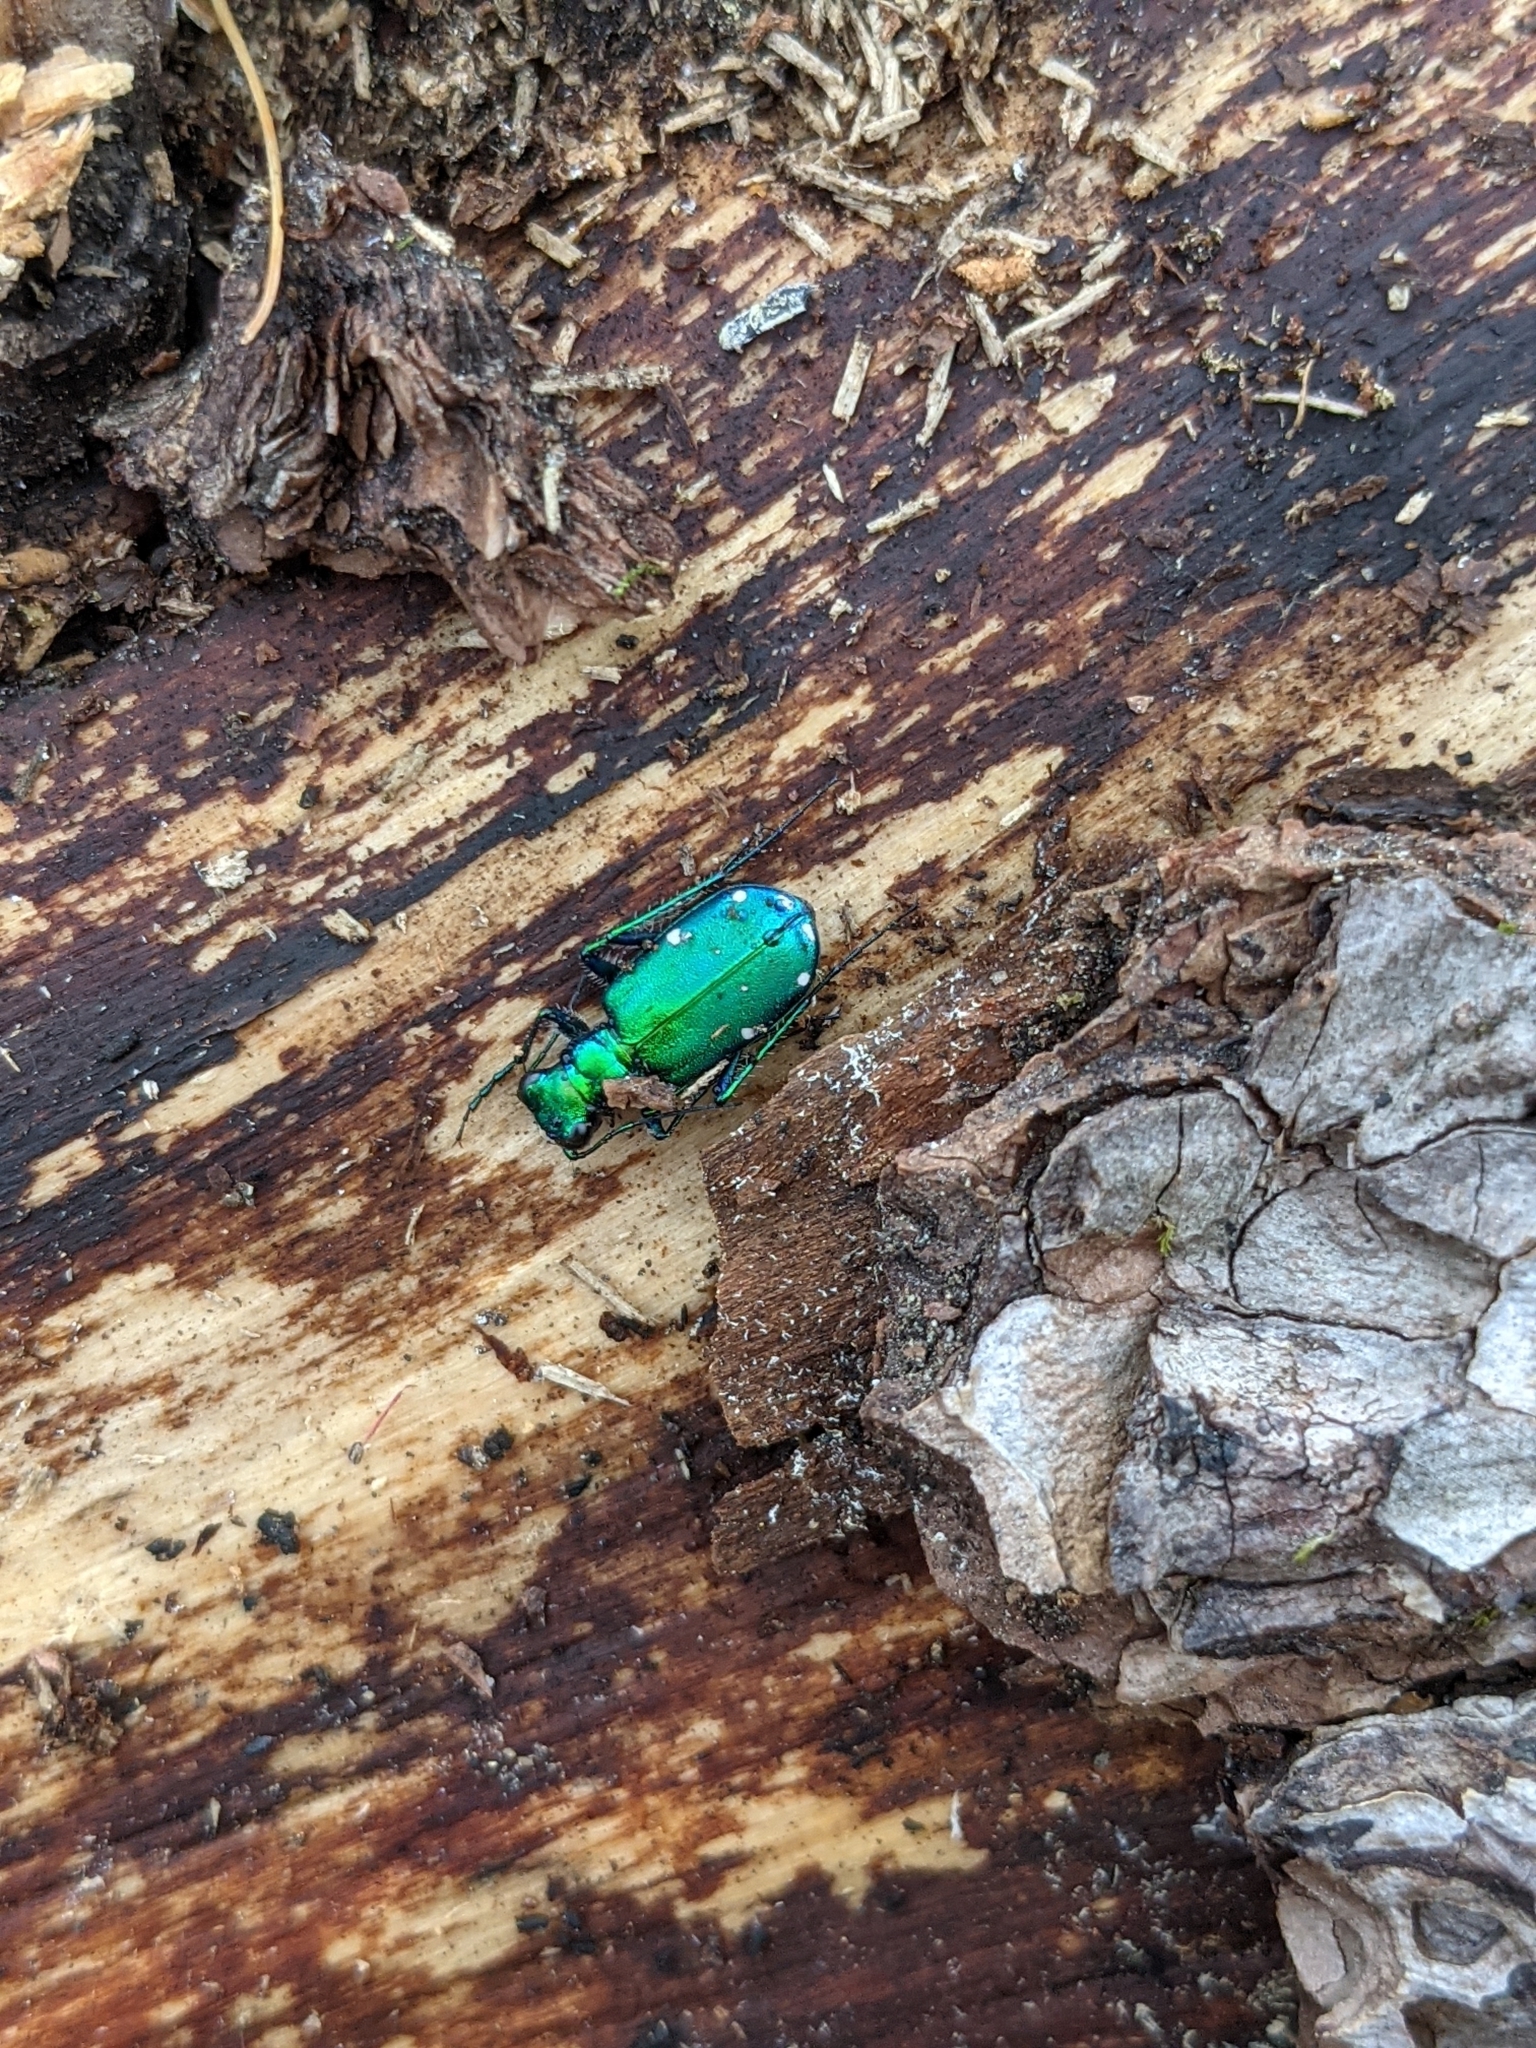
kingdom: Animalia
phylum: Arthropoda
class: Insecta
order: Coleoptera
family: Carabidae
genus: Cicindela
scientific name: Cicindela sexguttata
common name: Six-spotted tiger beetle
